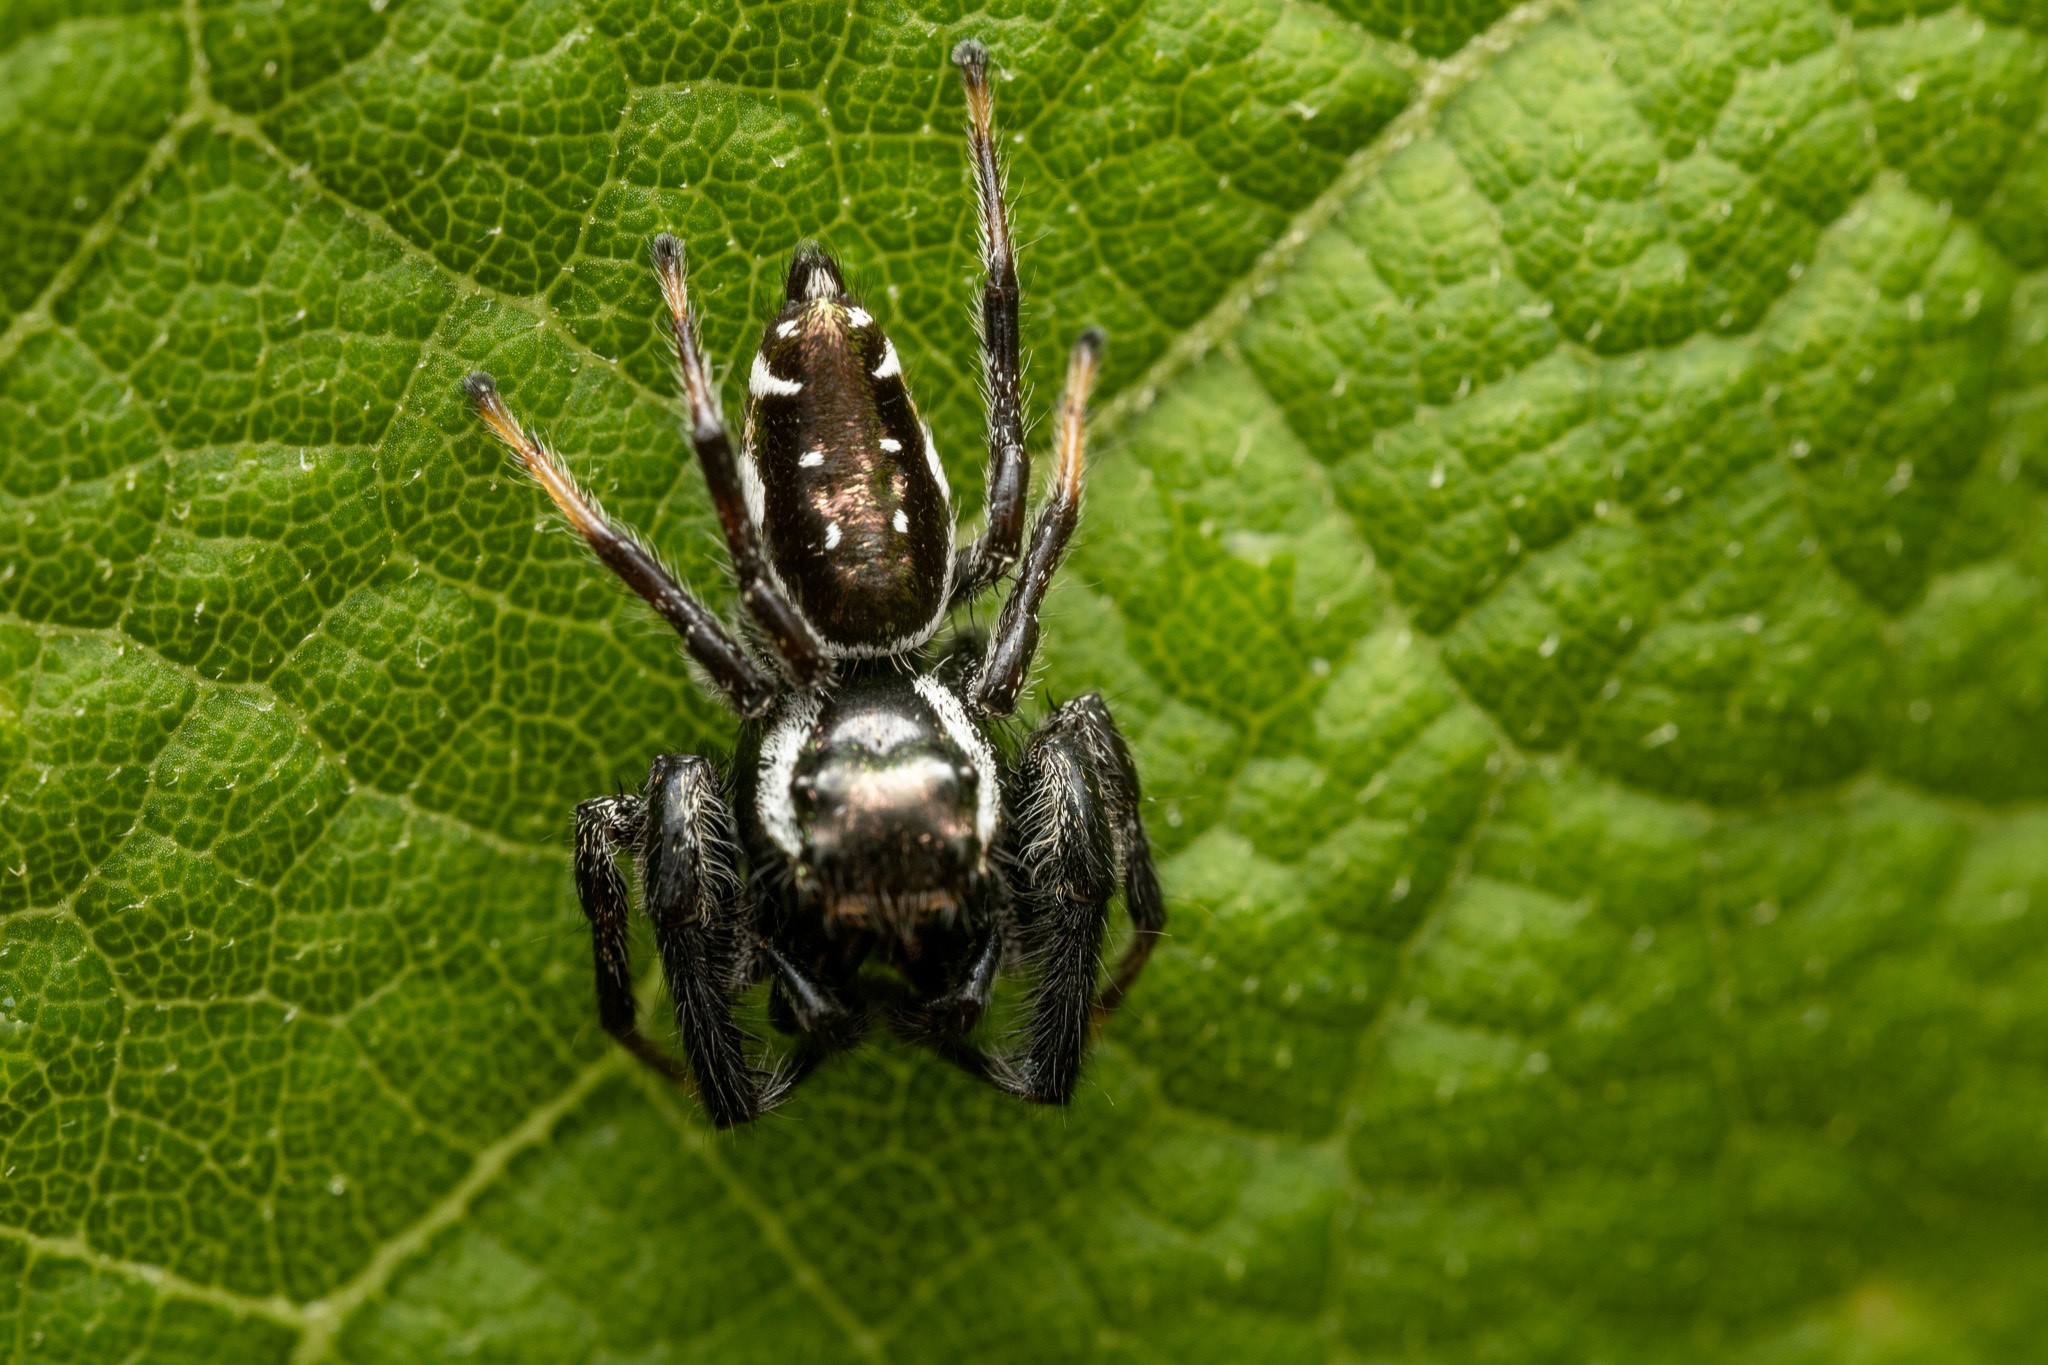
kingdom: Animalia
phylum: Arthropoda
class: Arachnida
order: Araneae
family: Salticidae
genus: Paraphidippus
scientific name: Paraphidippus aurantius
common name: Jumping spiders
